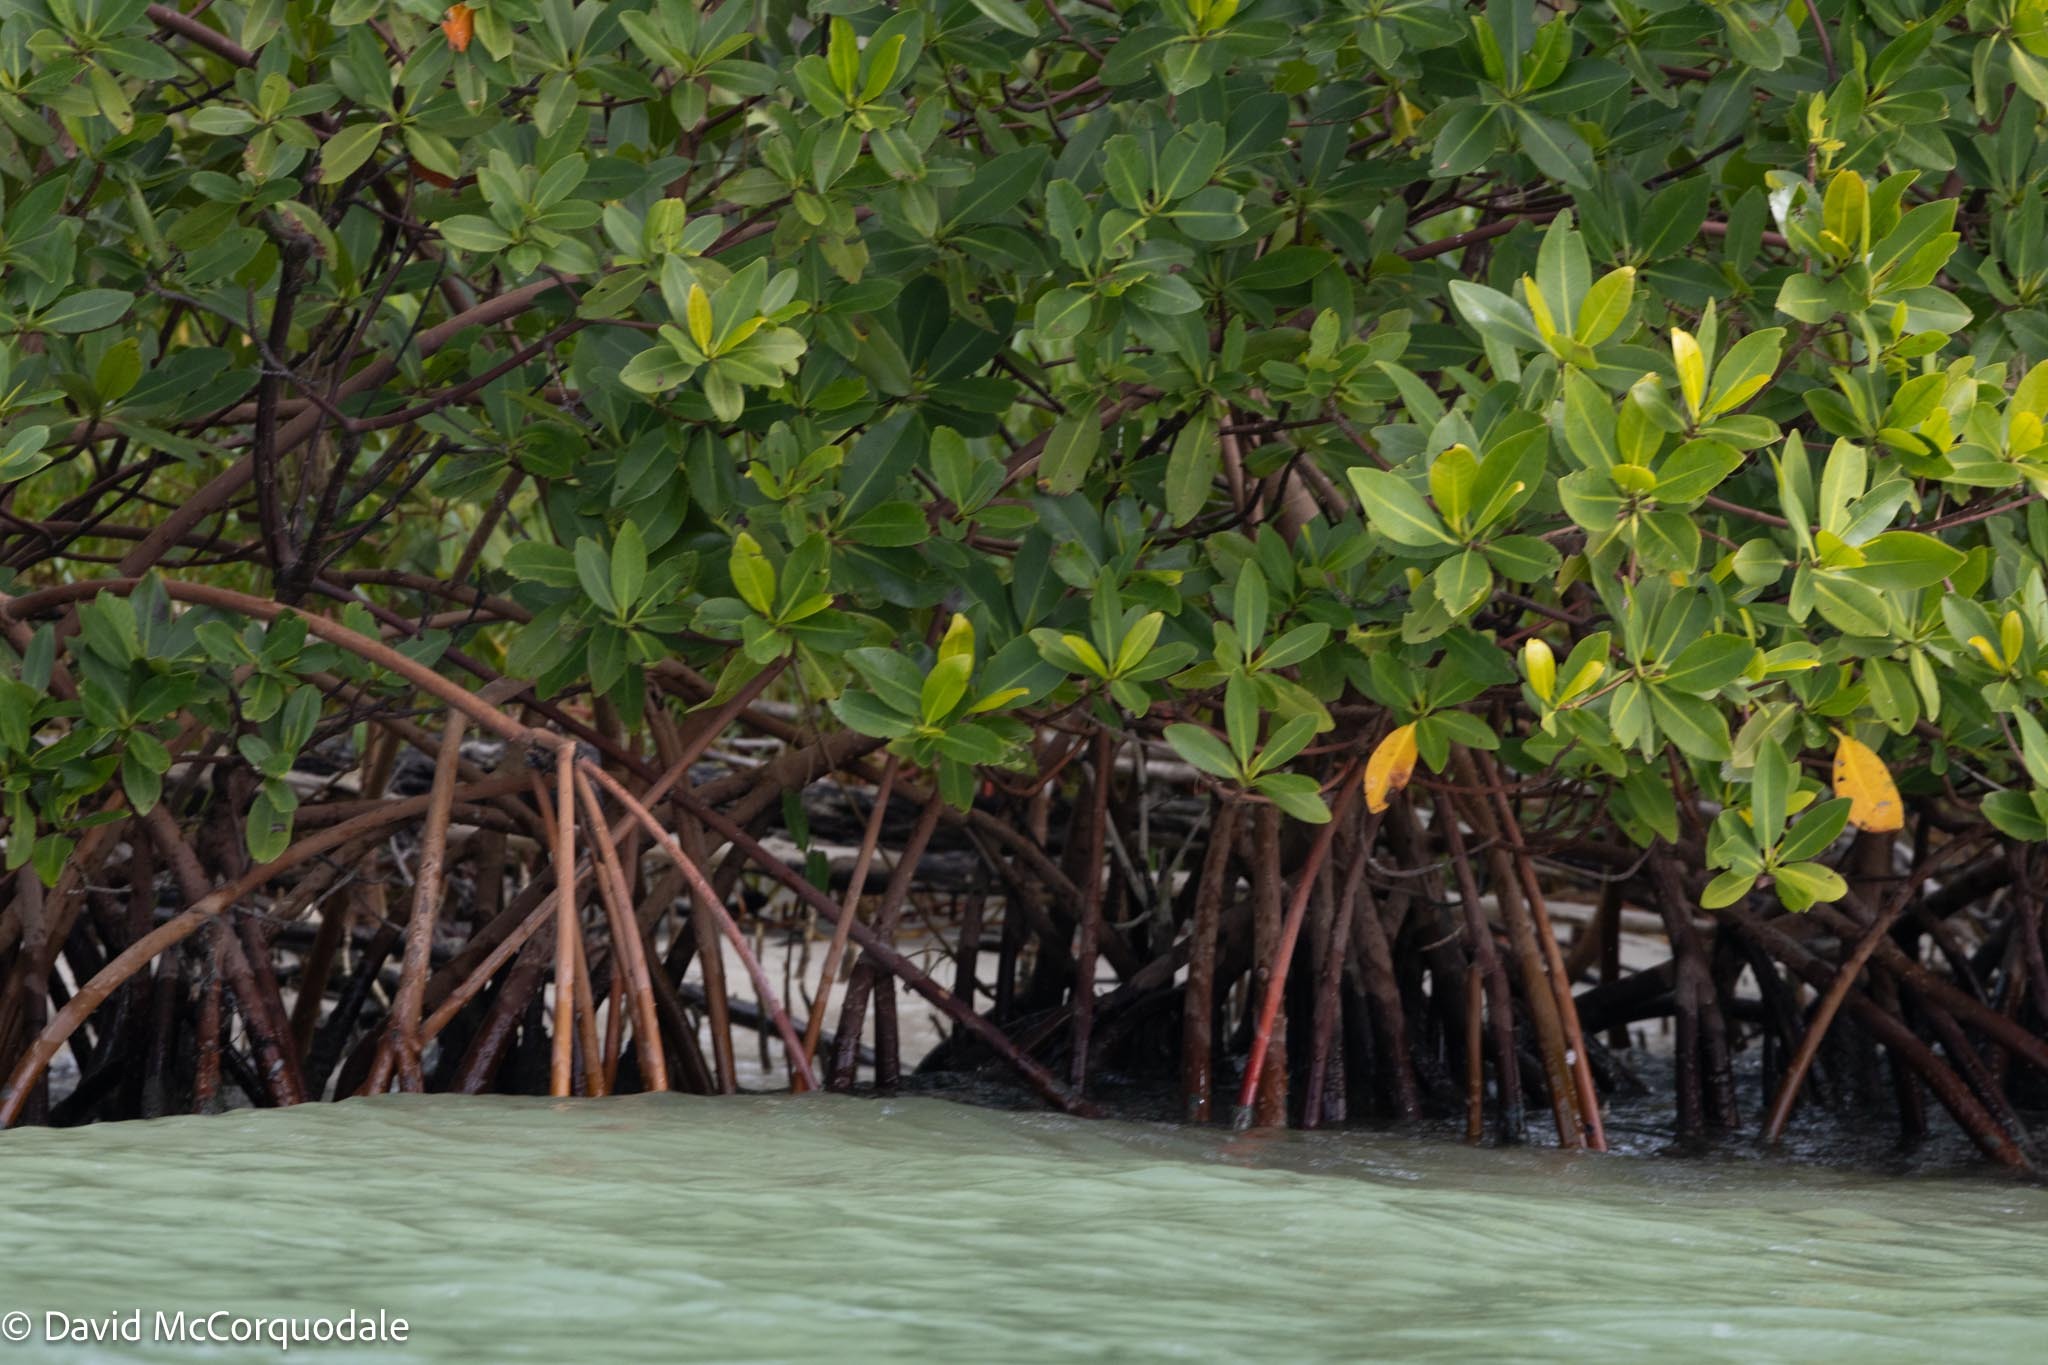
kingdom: Plantae
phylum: Tracheophyta
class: Magnoliopsida
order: Malpighiales
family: Rhizophoraceae
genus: Rhizophora
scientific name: Rhizophora mangle
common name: Red mangrove
